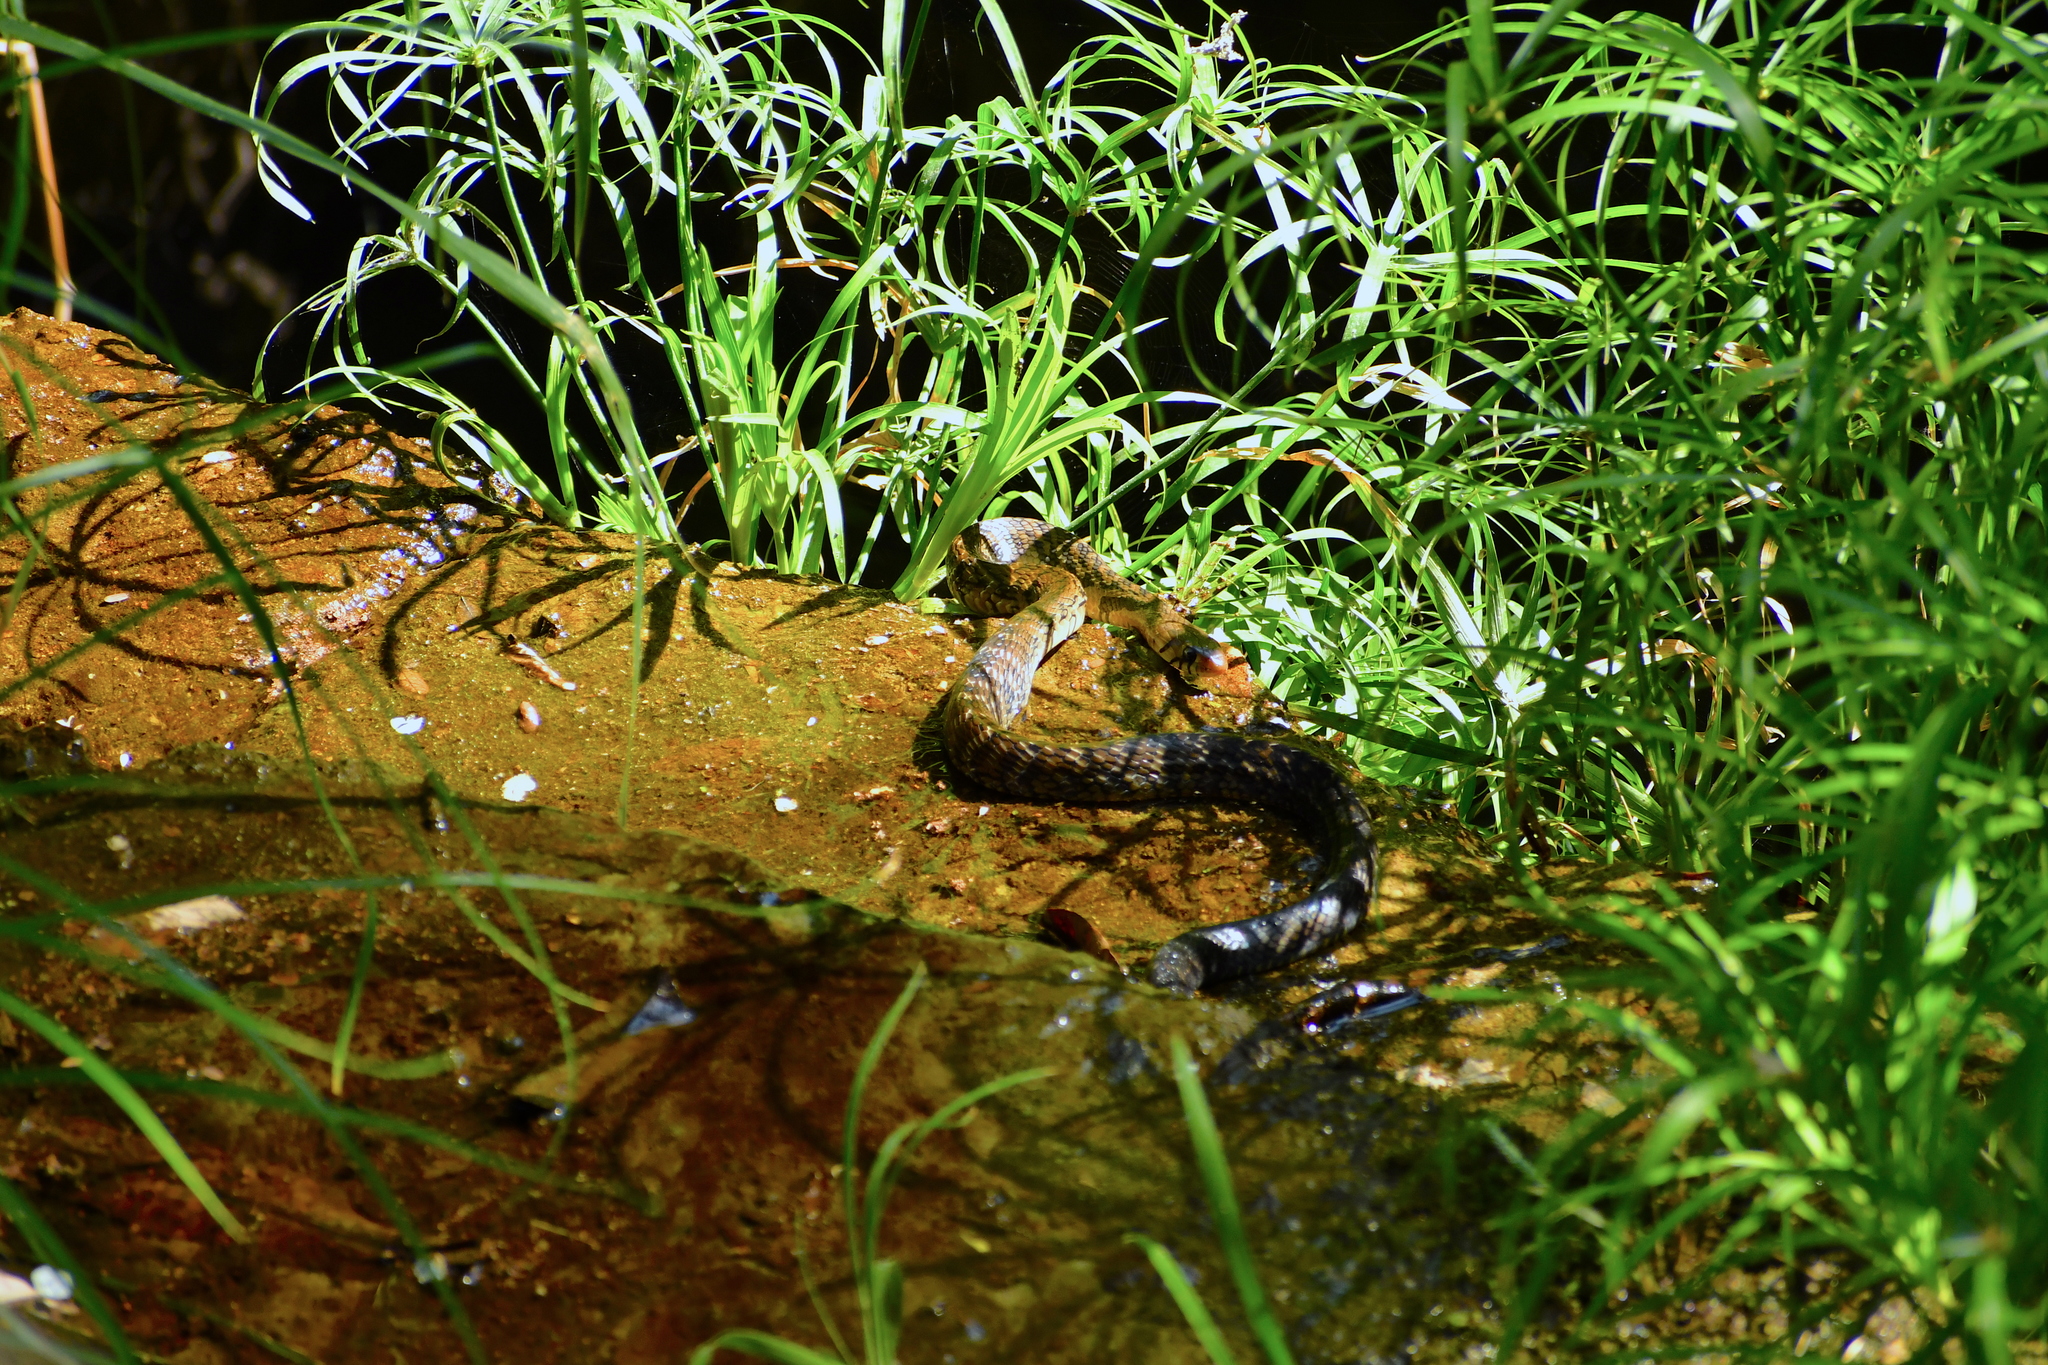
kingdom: Animalia
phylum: Chordata
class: Squamata
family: Colubridae
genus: Drymarchon
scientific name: Drymarchon melanurus
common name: Central american indigo snake
